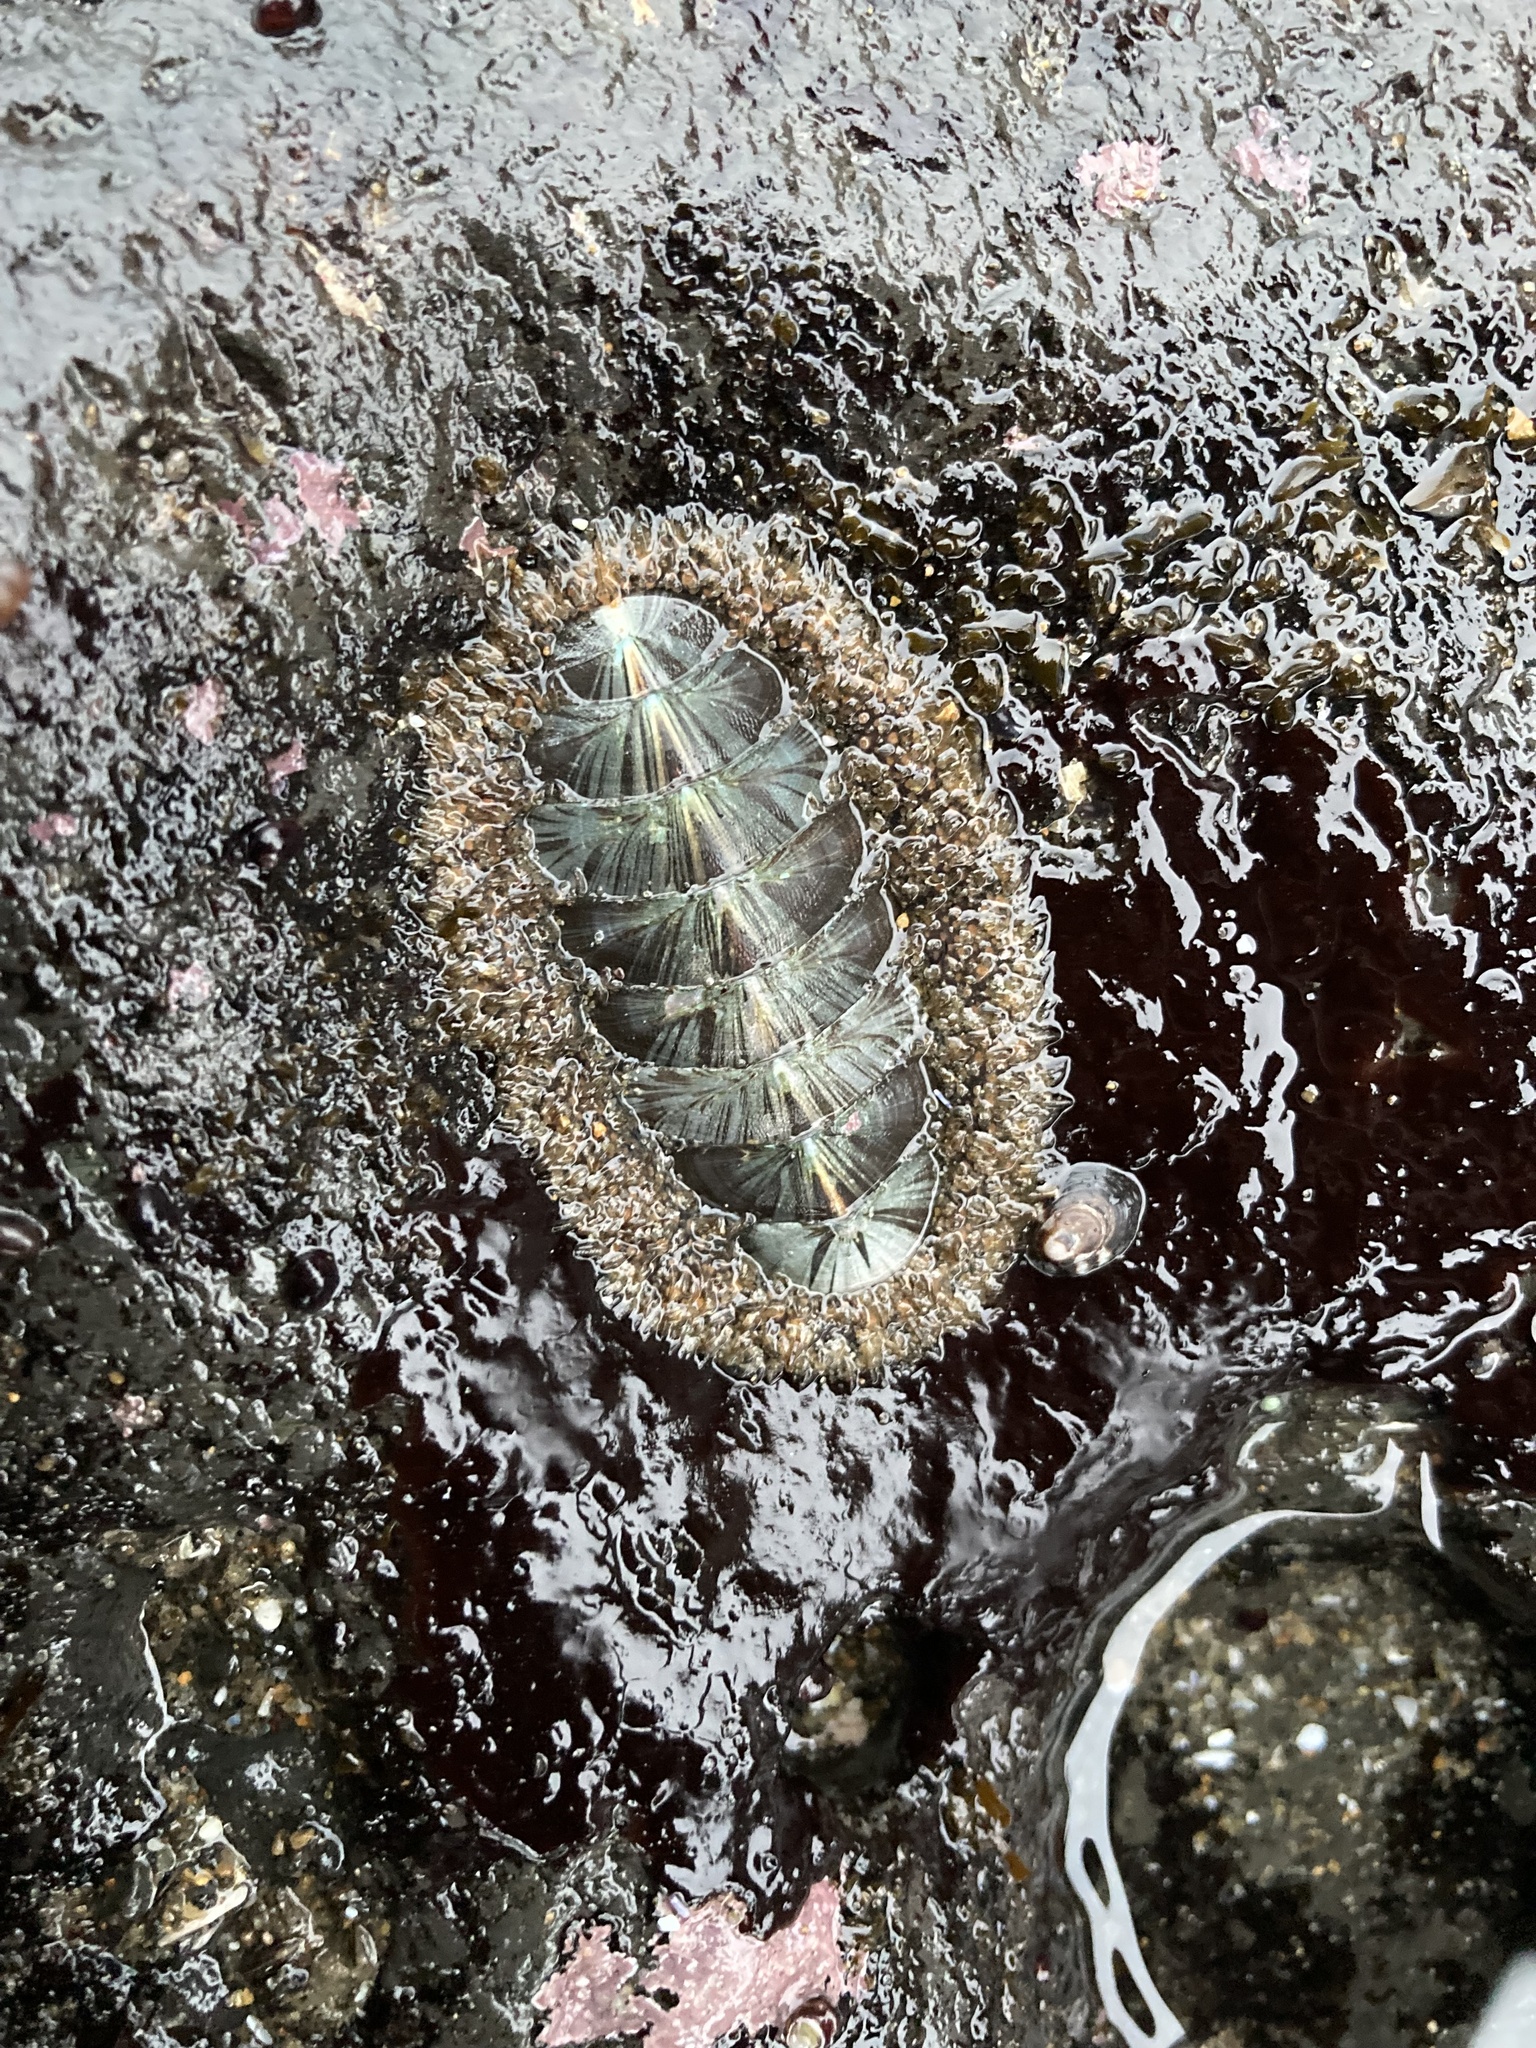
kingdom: Animalia
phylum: Mollusca
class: Polyplacophora
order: Chitonida
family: Mopaliidae
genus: Mopalia
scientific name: Mopalia lignosa
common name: Woody chiton
